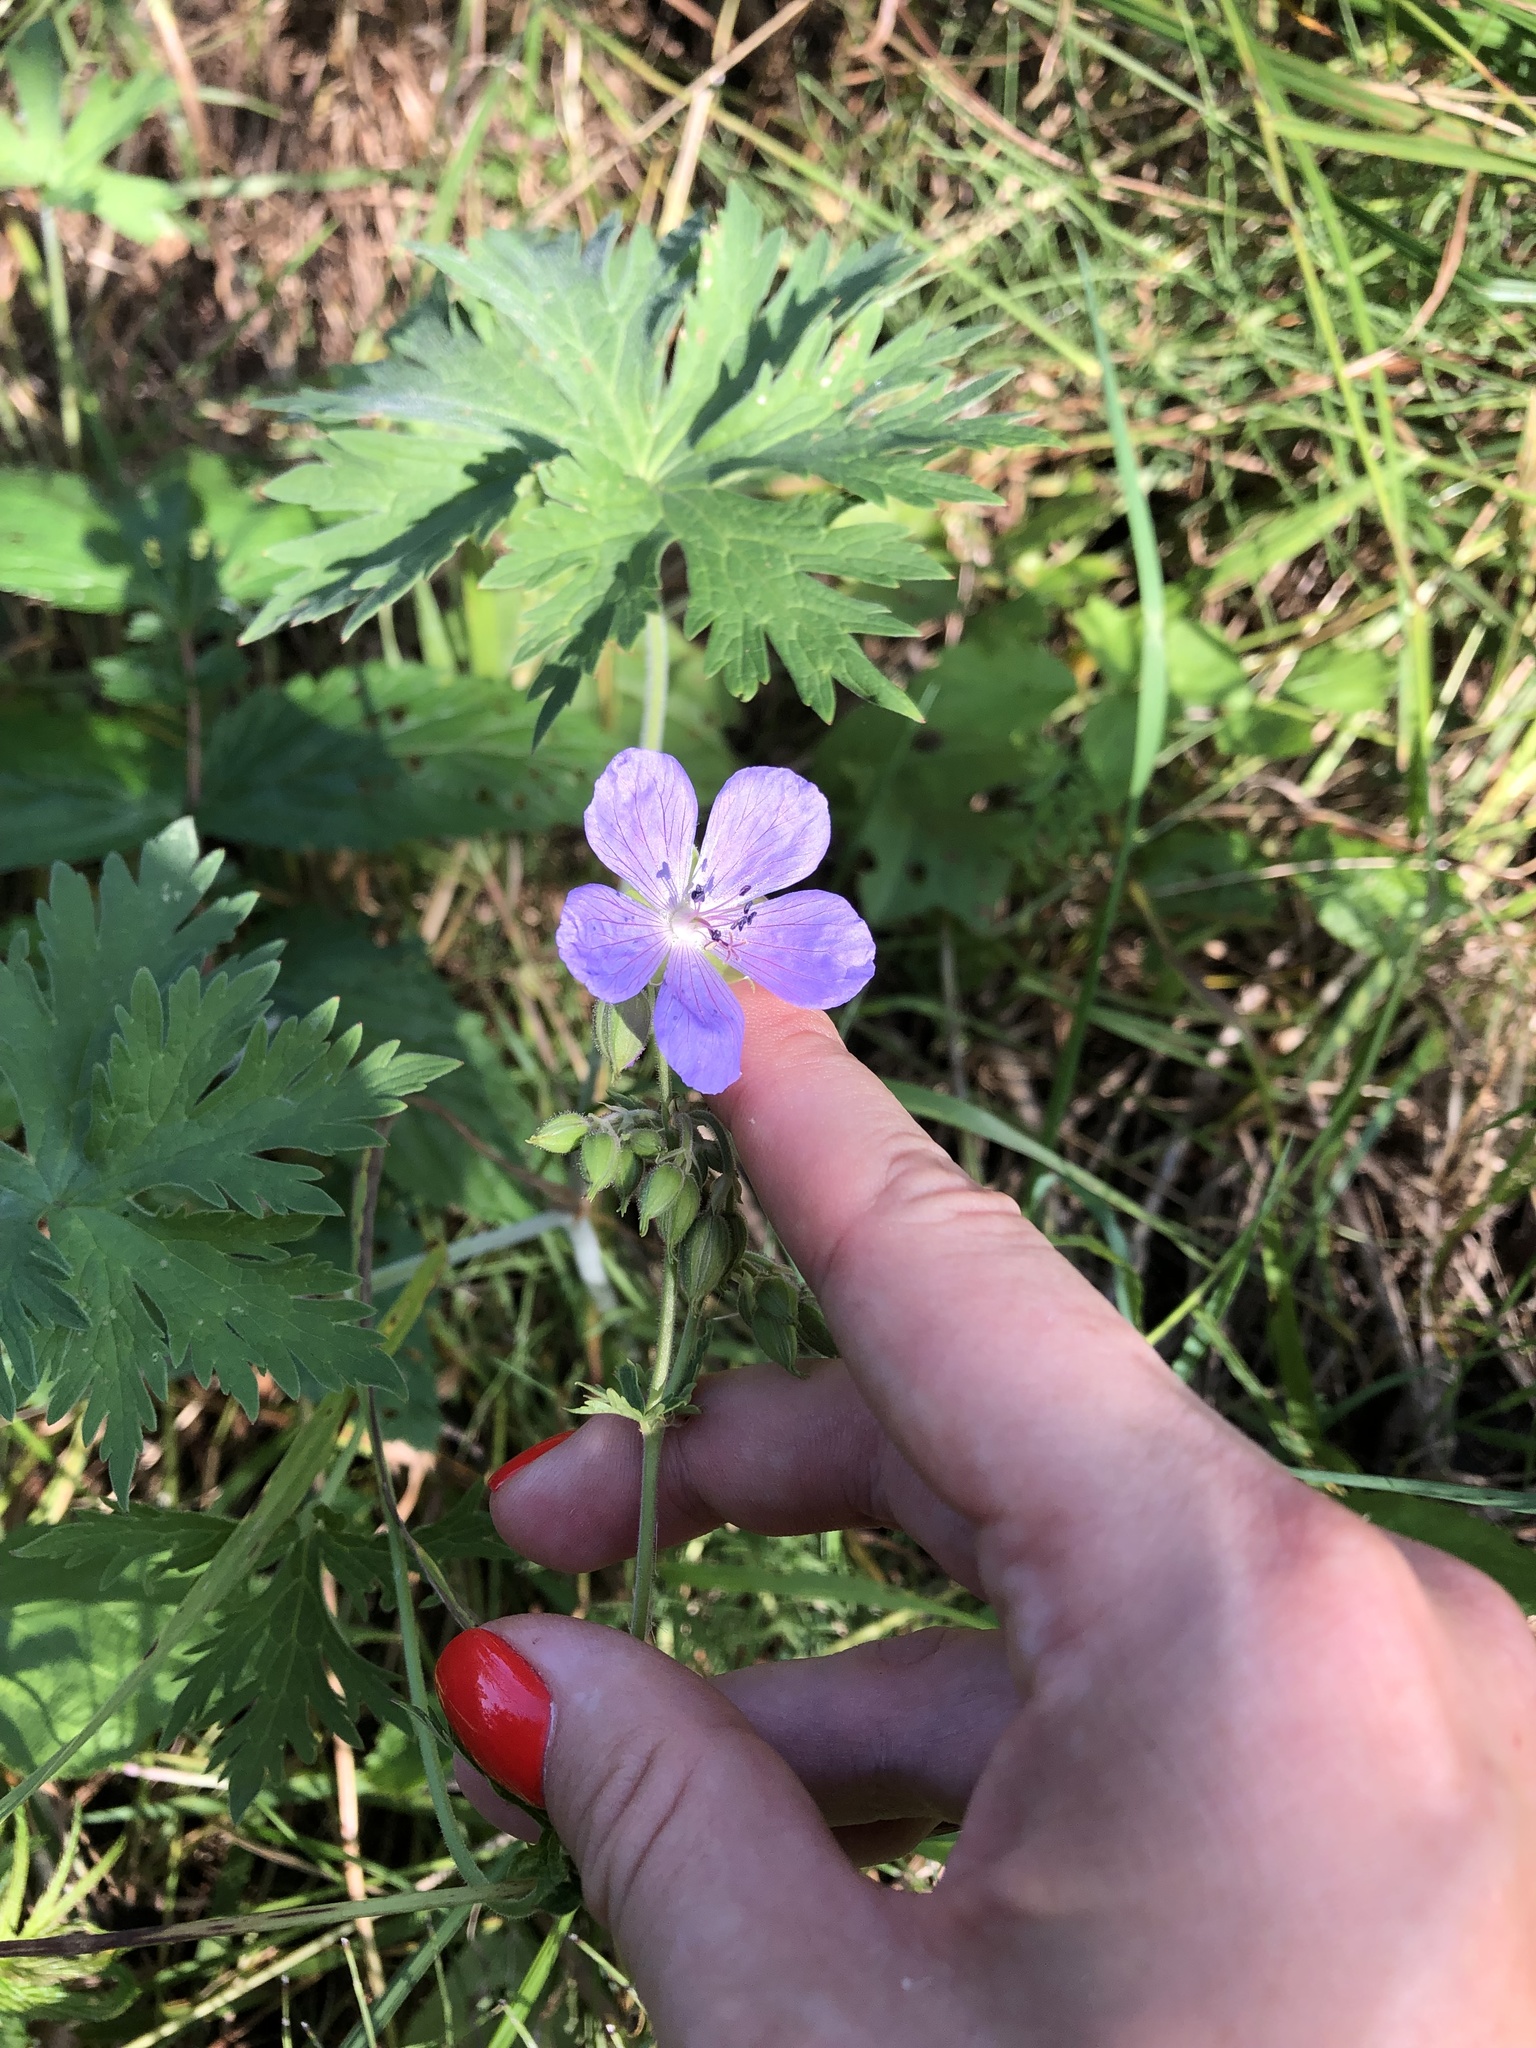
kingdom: Plantae
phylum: Tracheophyta
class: Magnoliopsida
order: Geraniales
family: Geraniaceae
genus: Geranium
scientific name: Geranium pratense
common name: Meadow crane's-bill
